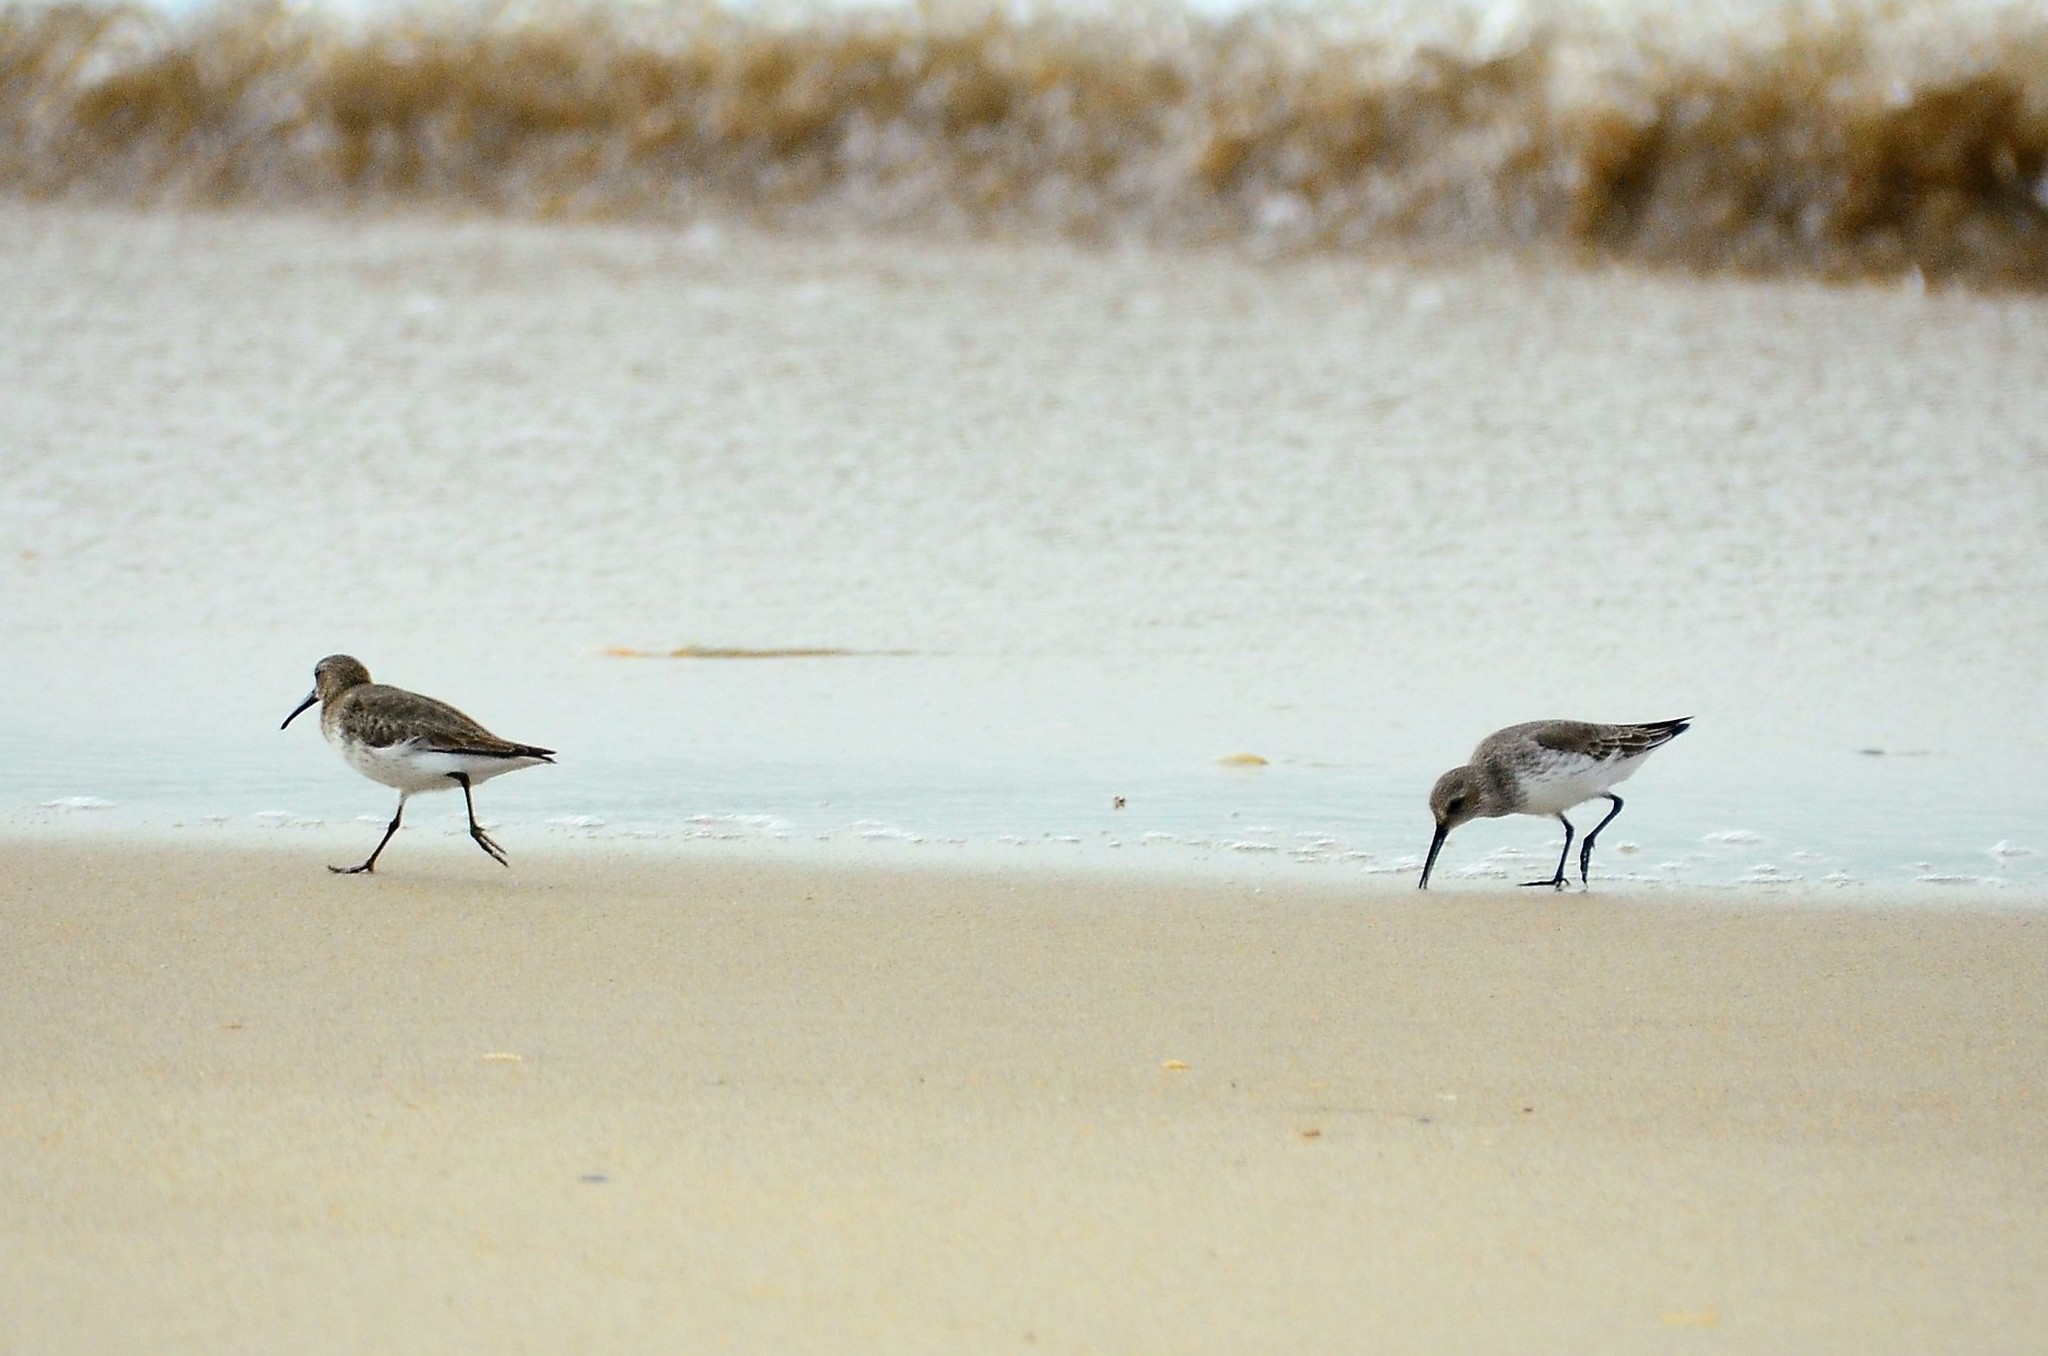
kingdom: Animalia
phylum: Chordata
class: Aves
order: Charadriiformes
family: Scolopacidae
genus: Calidris
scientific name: Calidris alpina
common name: Dunlin
